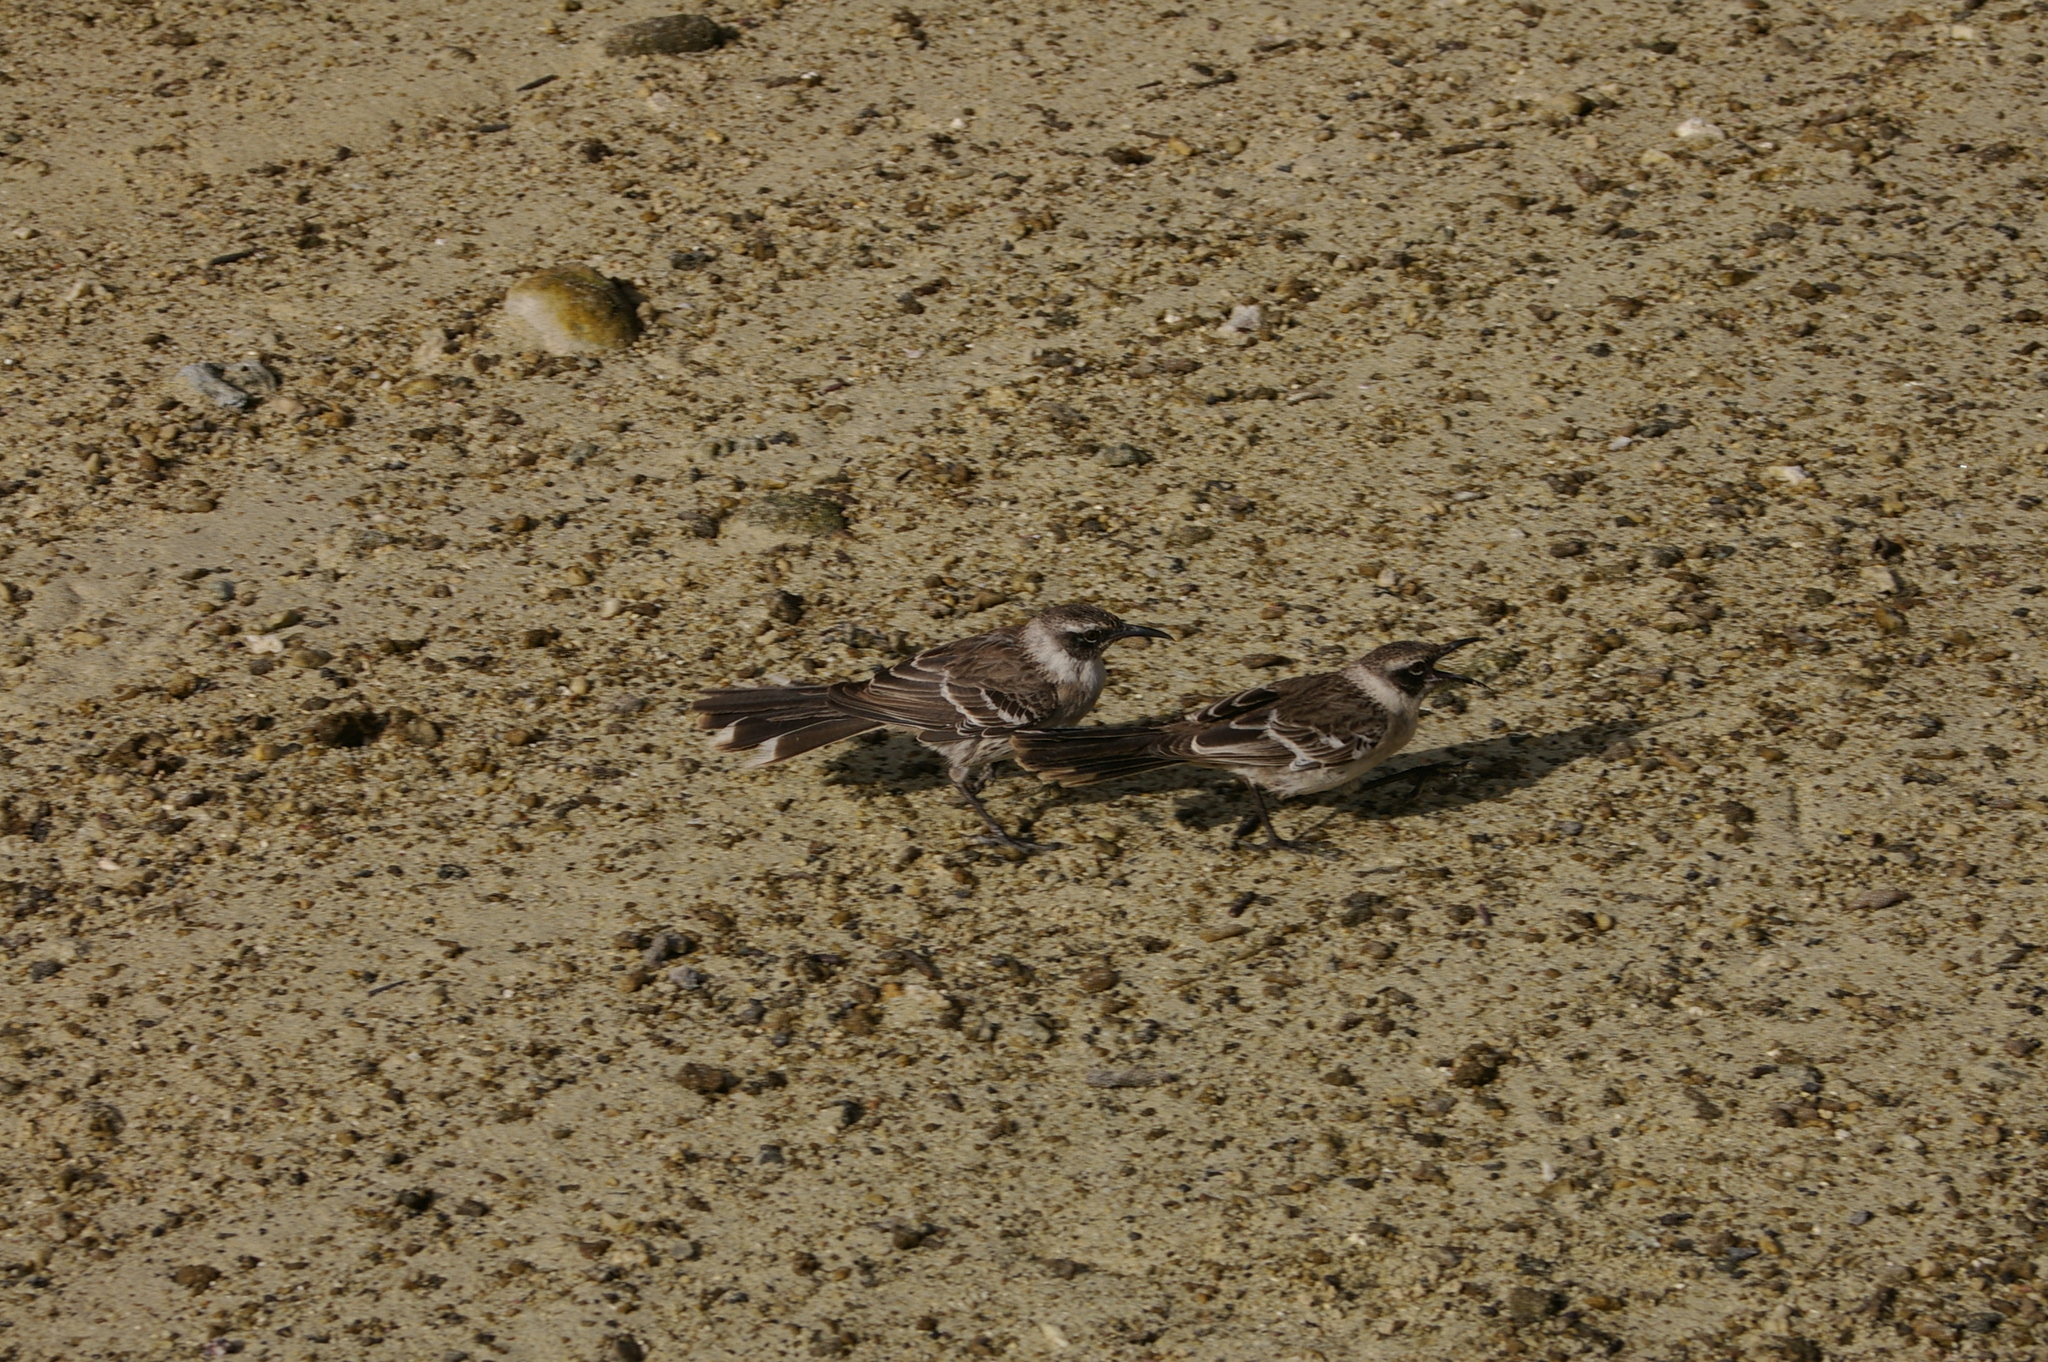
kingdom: Animalia
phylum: Chordata
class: Aves
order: Passeriformes
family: Mimidae
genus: Mimus
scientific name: Mimus parvulus
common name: Galapagos mockingbird
